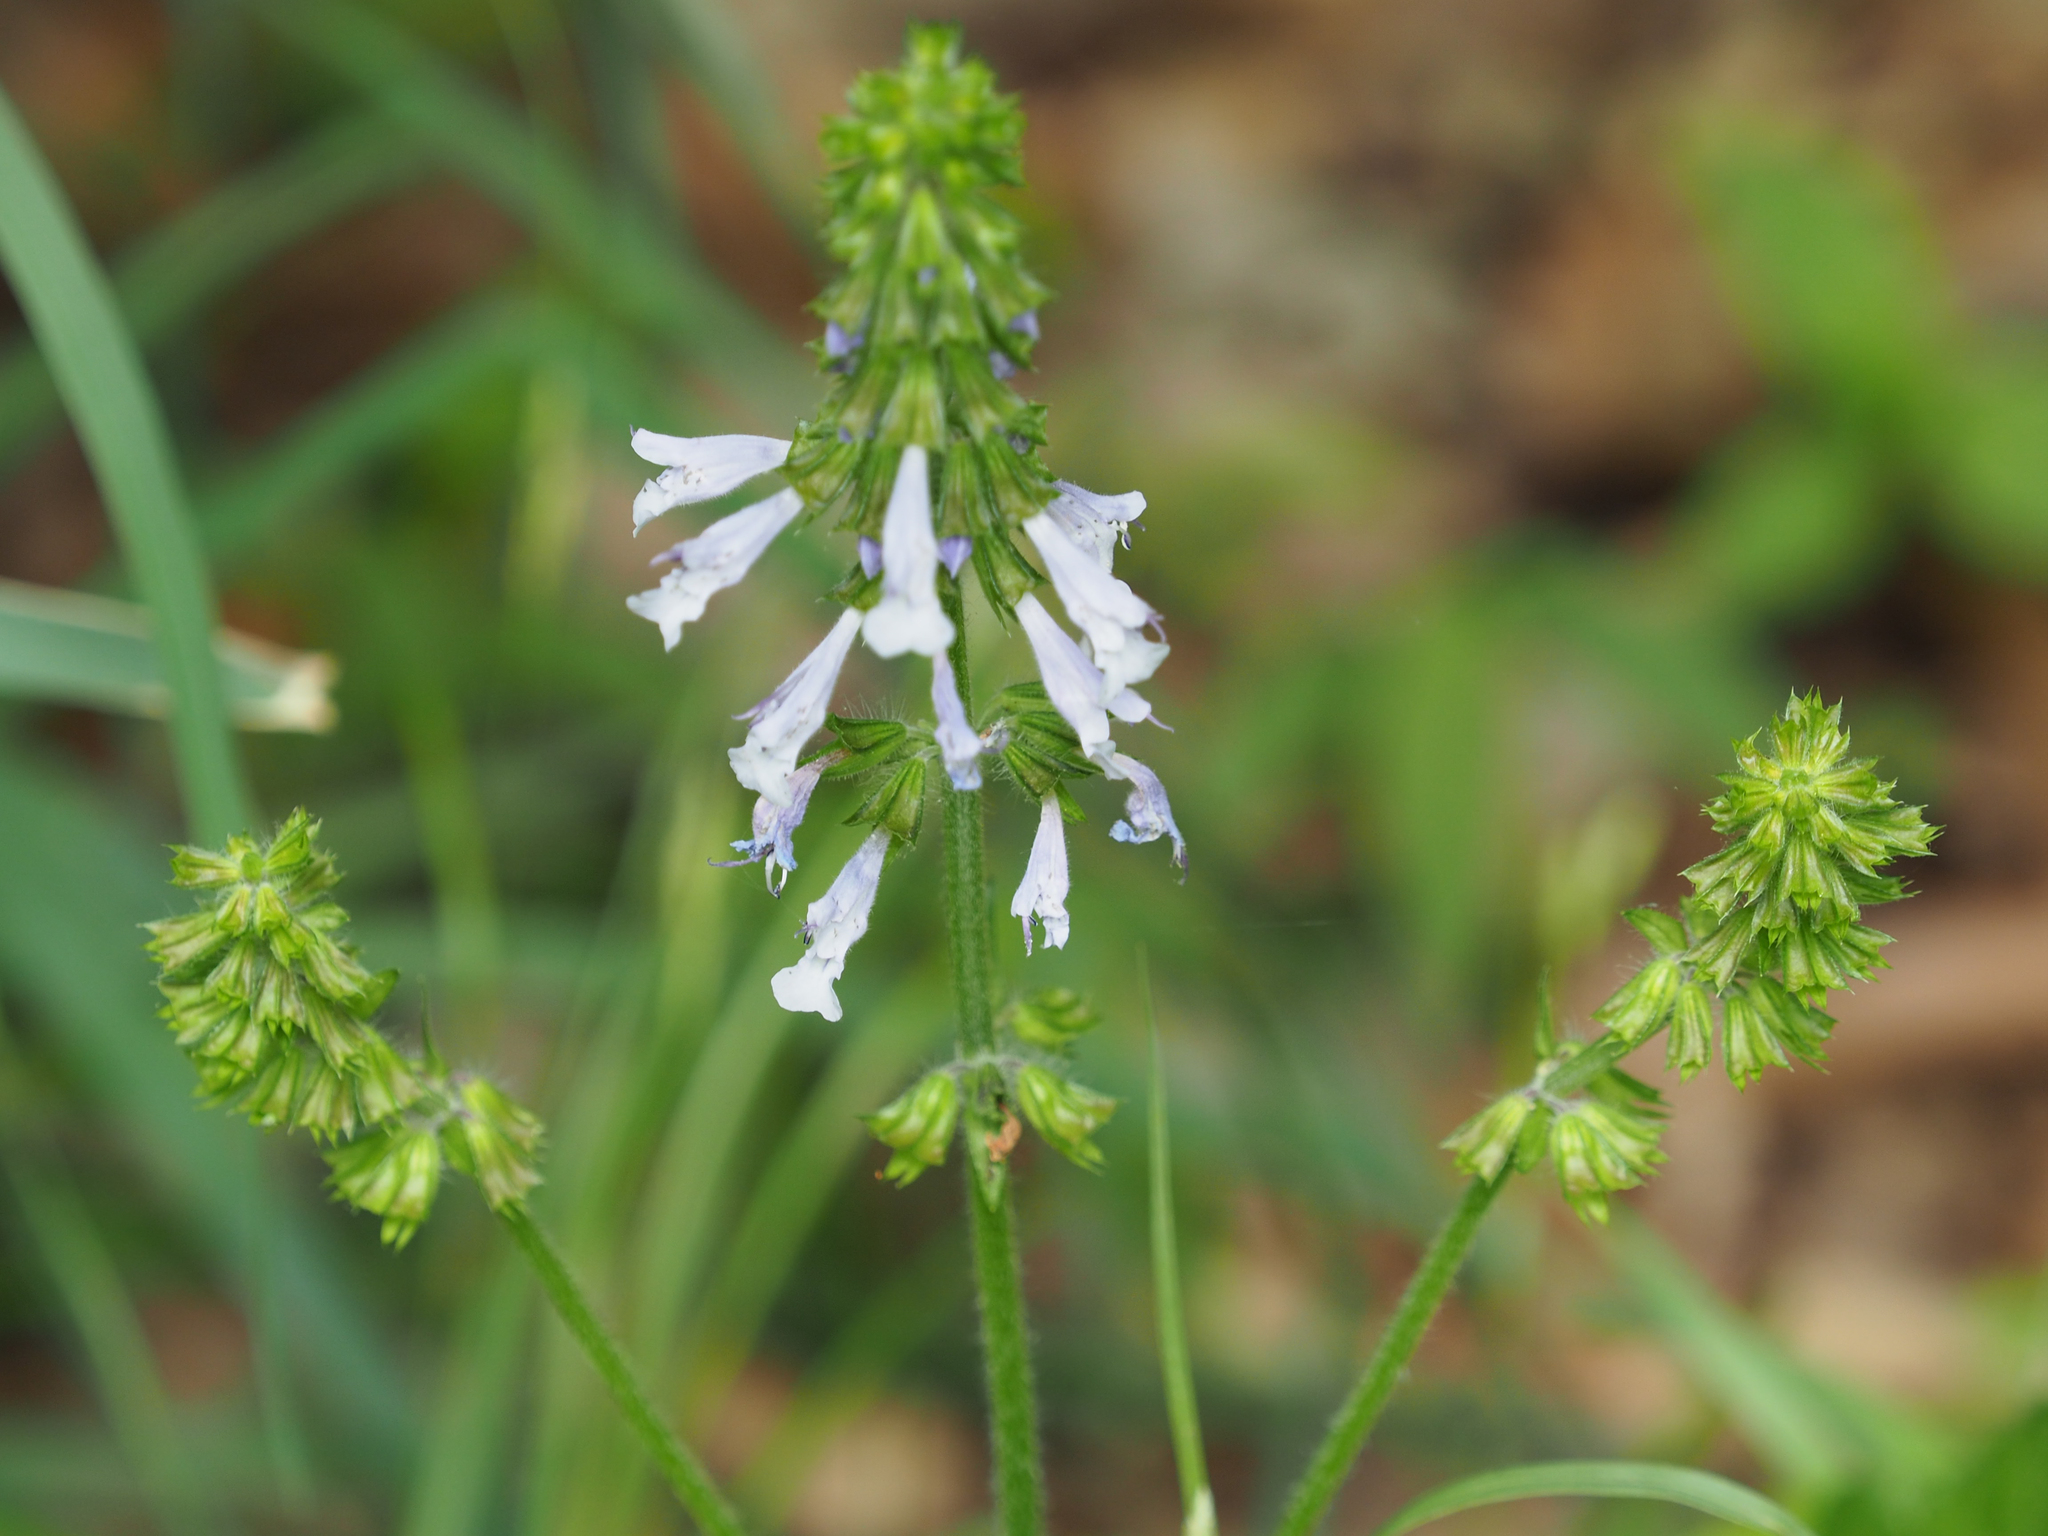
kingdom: Plantae
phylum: Tracheophyta
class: Magnoliopsida
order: Lamiales
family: Lamiaceae
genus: Salvia
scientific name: Salvia lyrata
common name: Cancerweed
